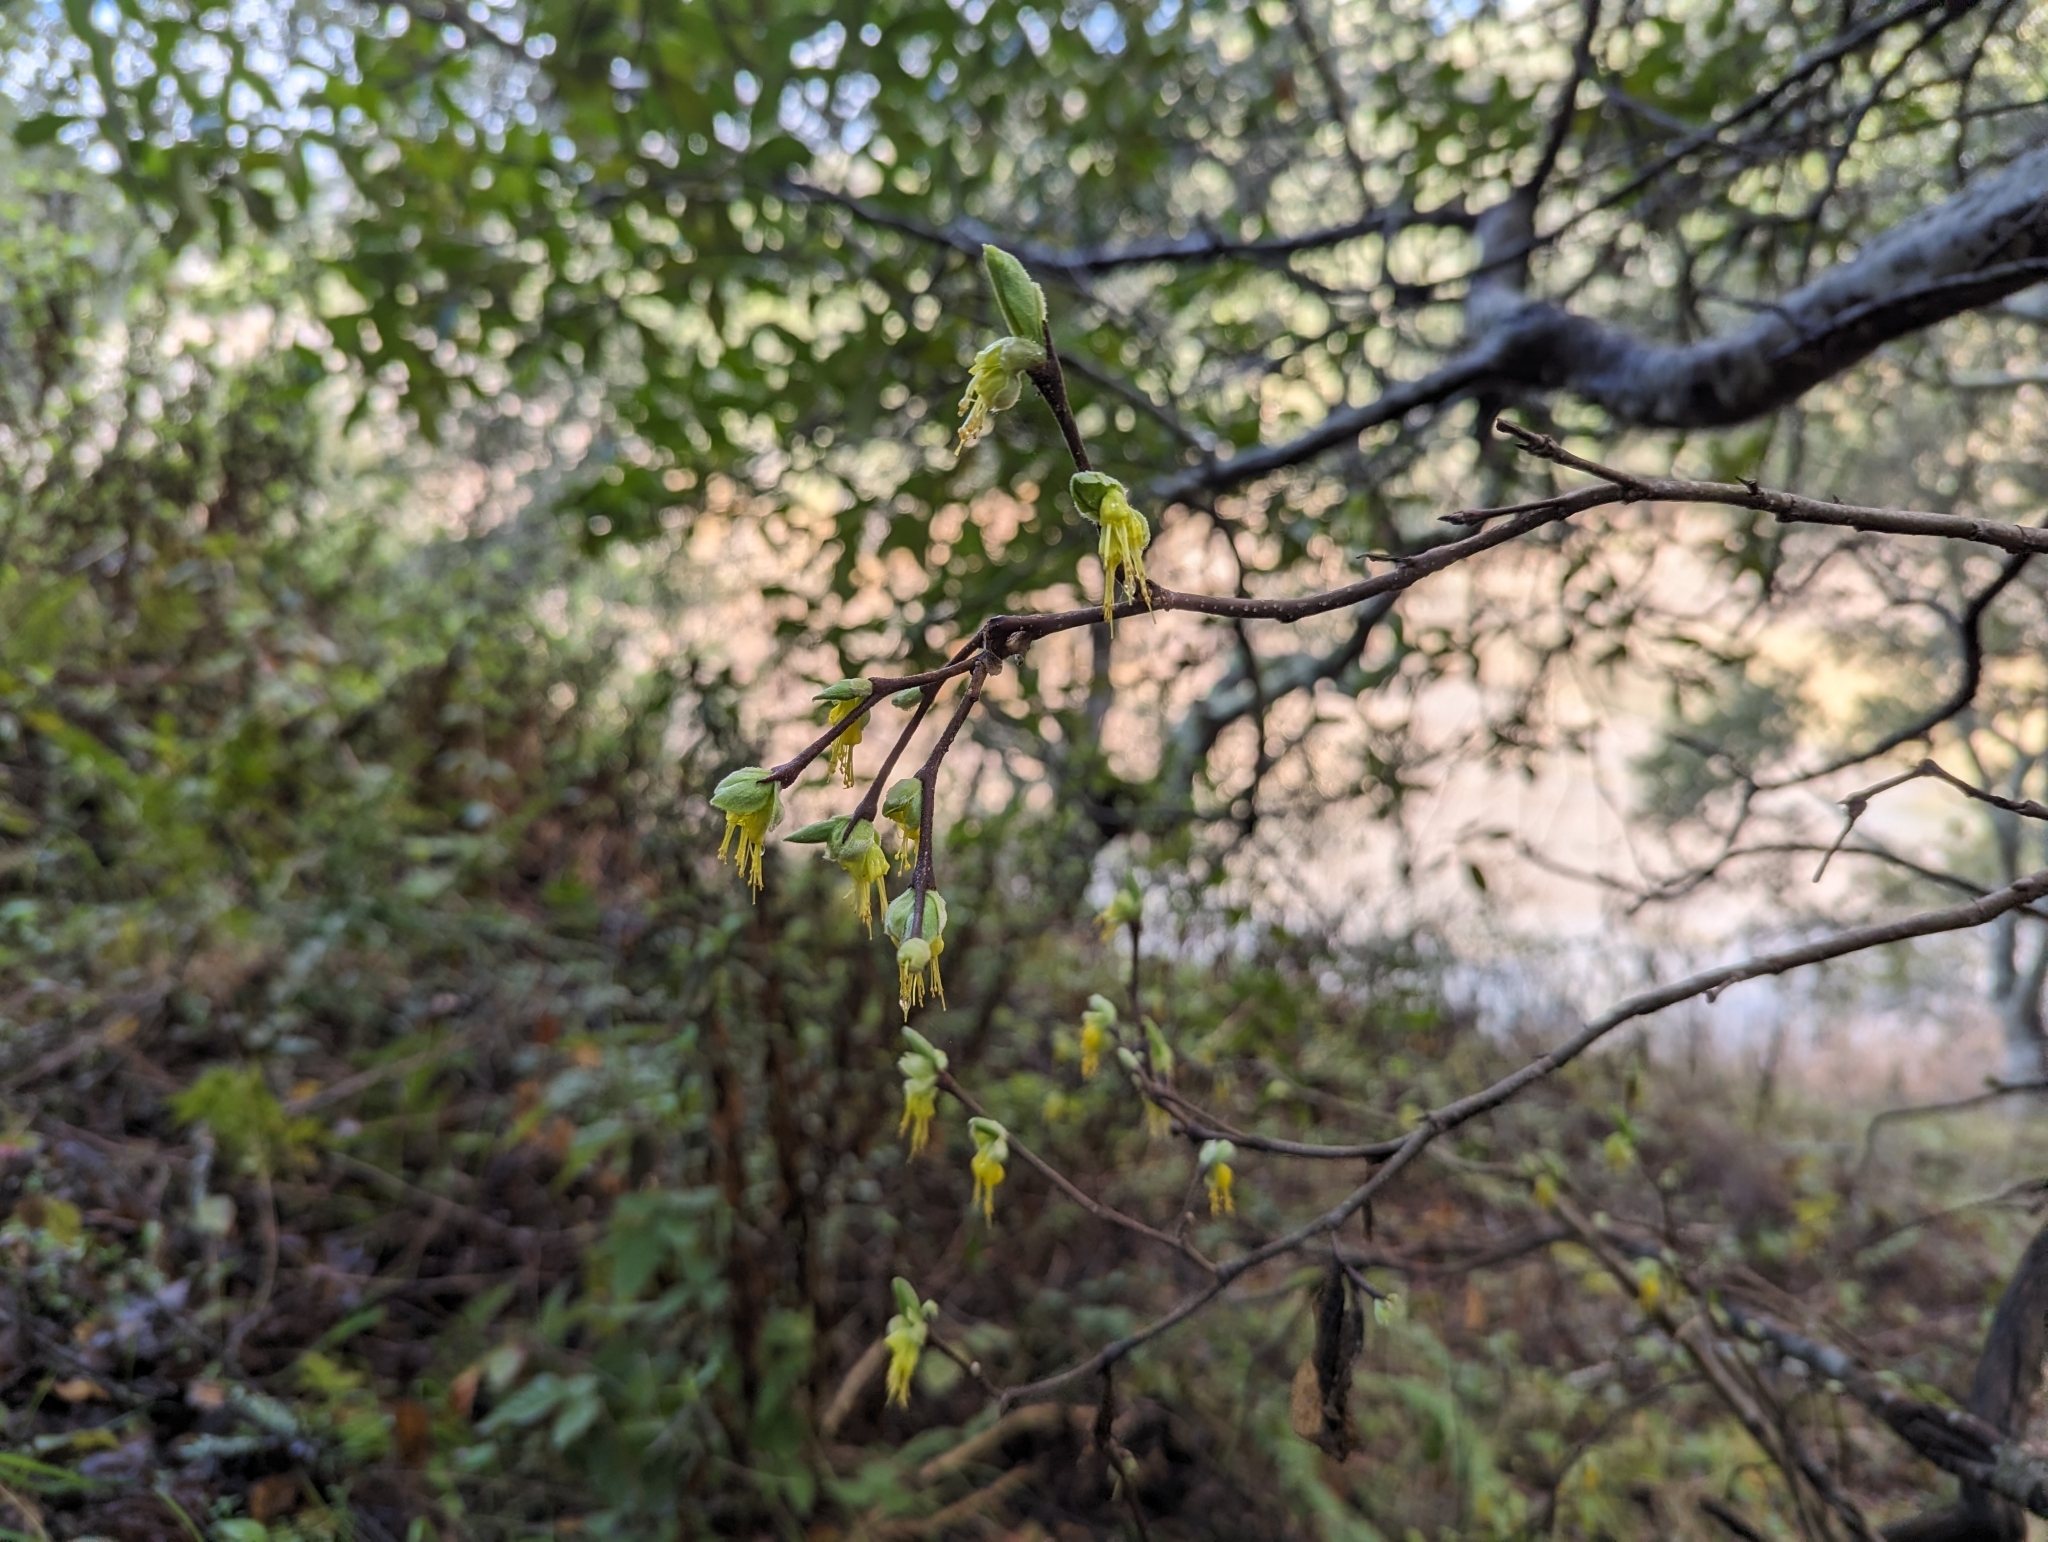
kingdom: Plantae
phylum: Tracheophyta
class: Magnoliopsida
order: Malvales
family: Thymelaeaceae
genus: Dirca
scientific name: Dirca occidentalis
